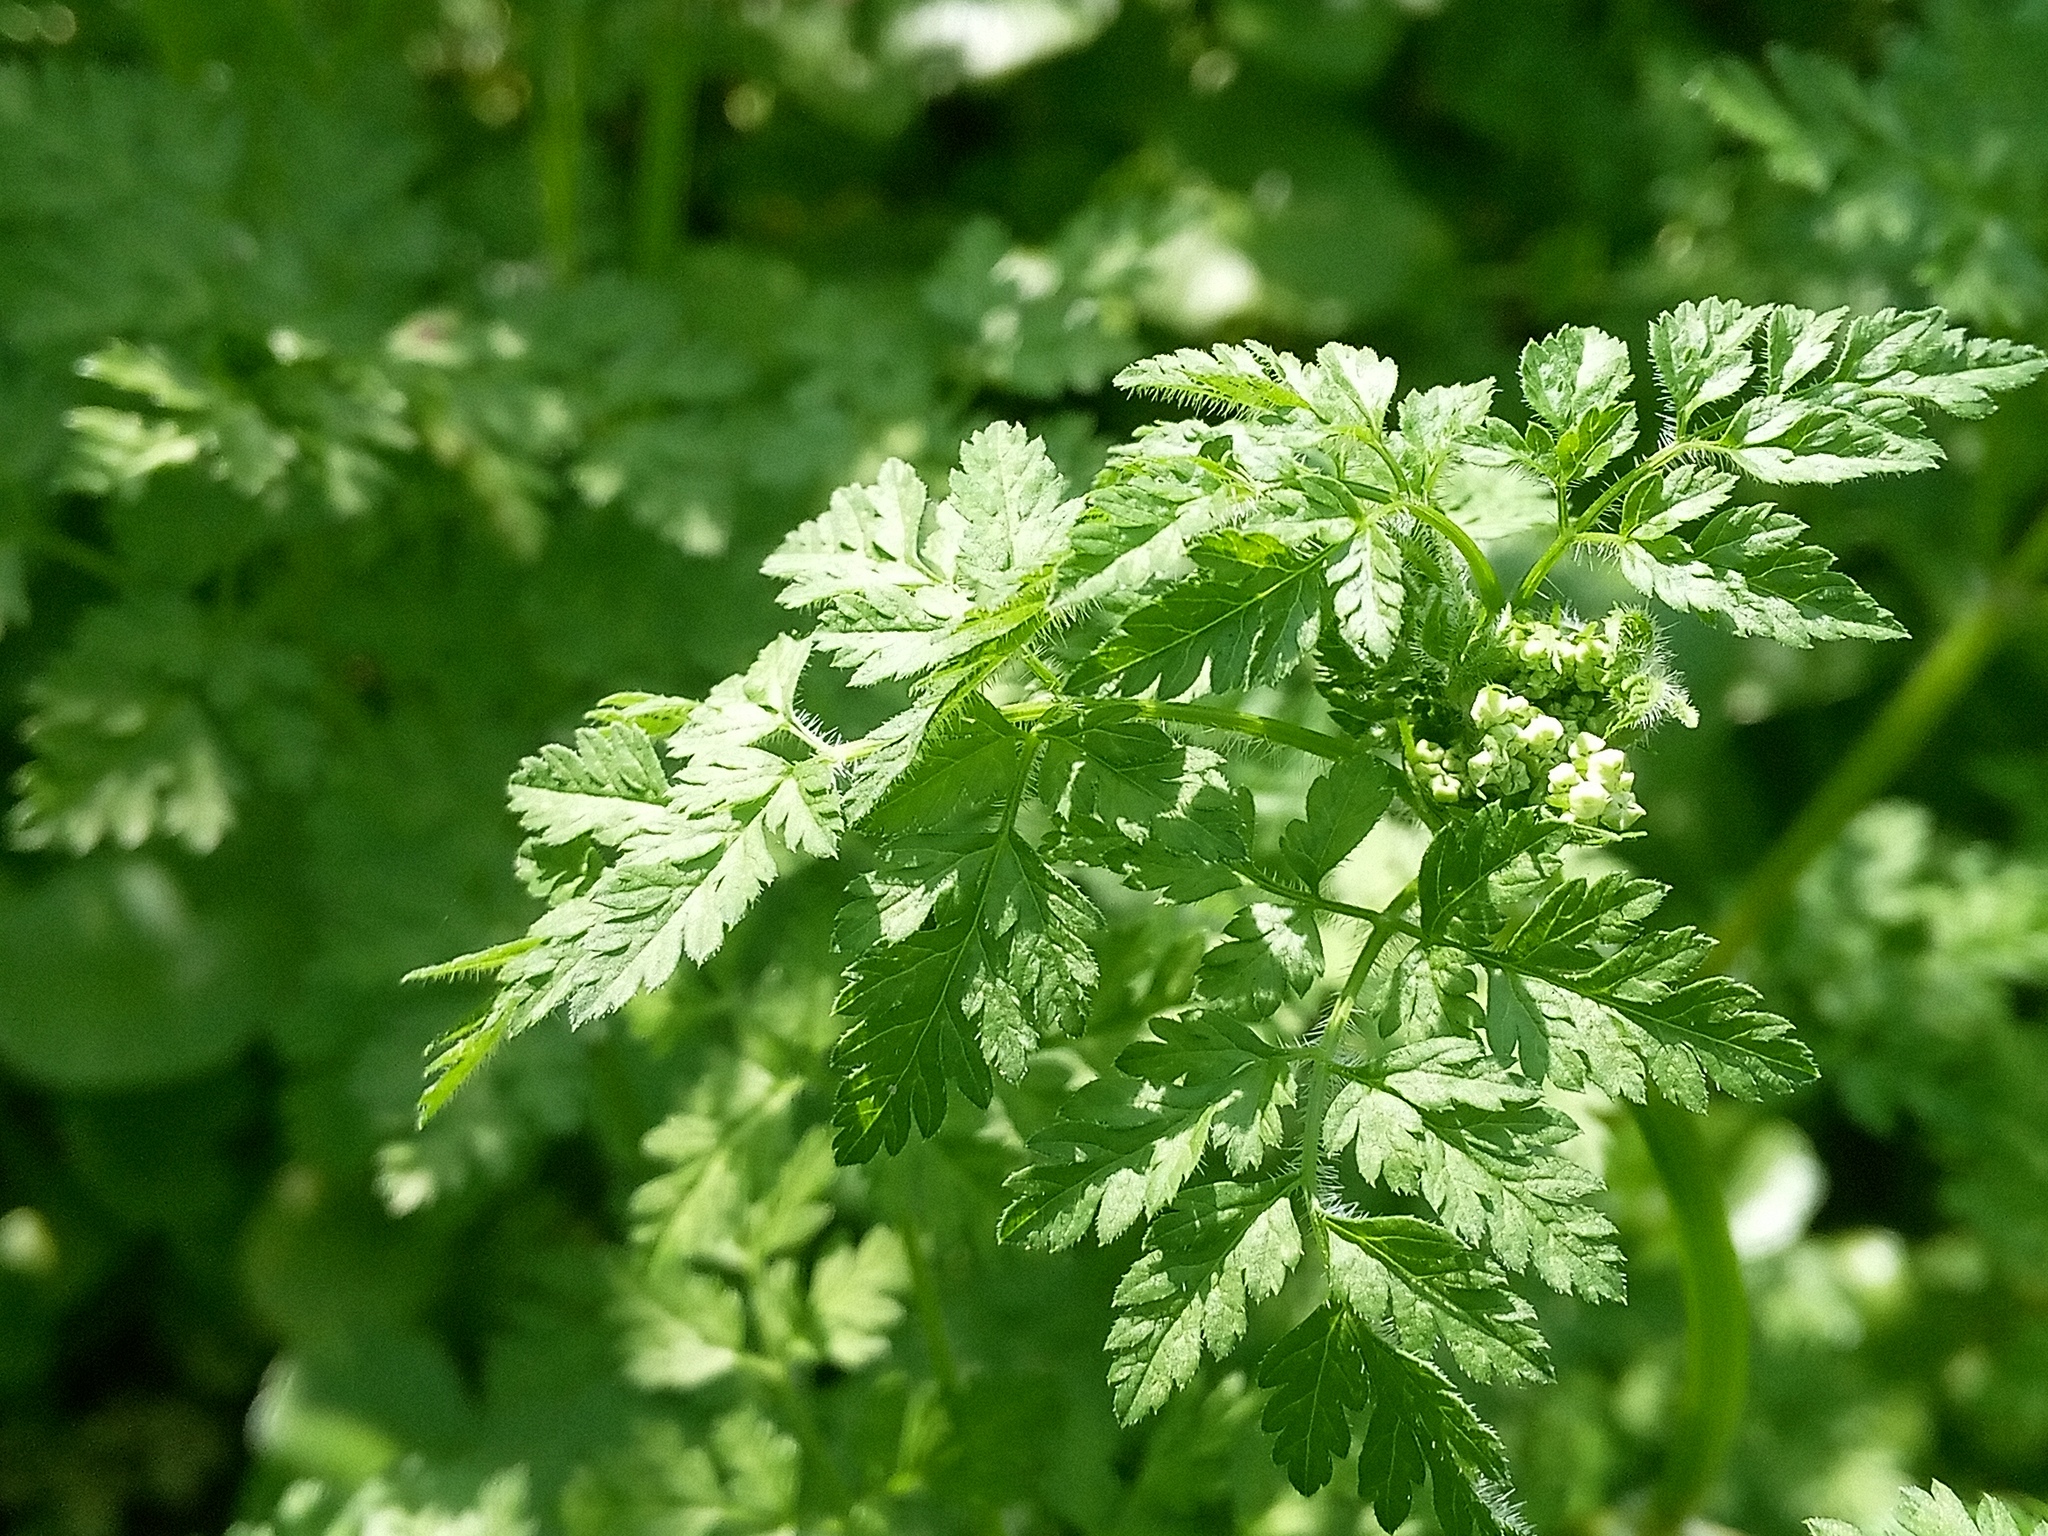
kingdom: Plantae
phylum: Tracheophyta
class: Magnoliopsida
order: Apiales
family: Apiaceae
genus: Anthriscus
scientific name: Anthriscus cerefolium
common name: Garden chervil
